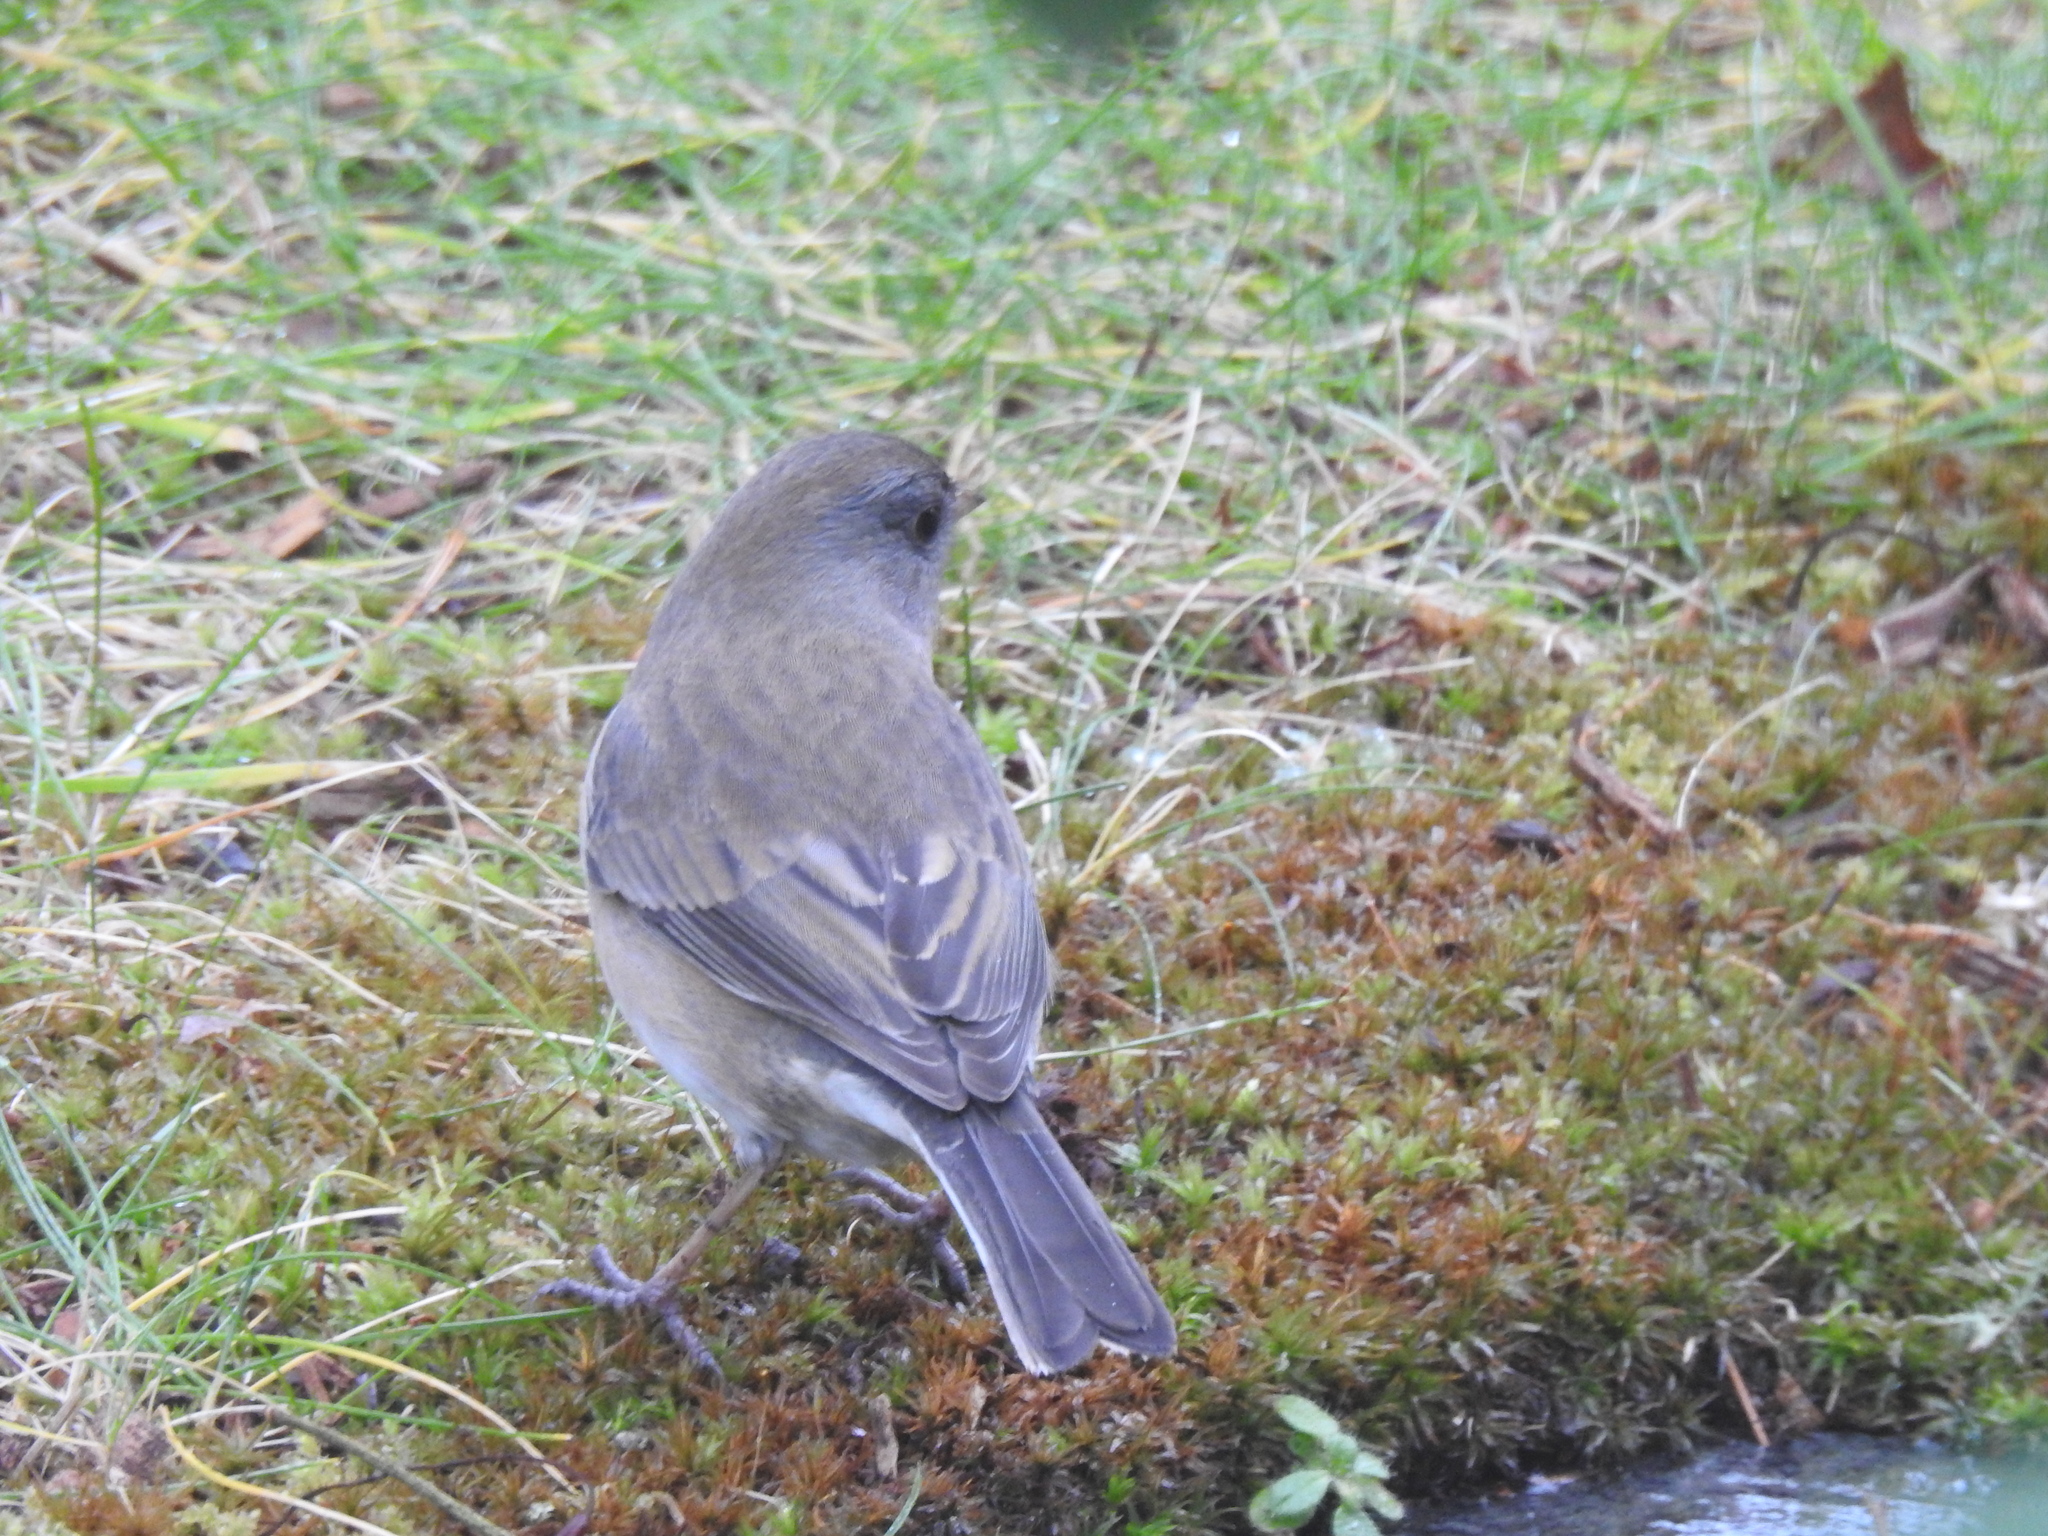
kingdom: Animalia
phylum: Chordata
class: Aves
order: Passeriformes
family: Passerellidae
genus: Junco
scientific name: Junco hyemalis
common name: Dark-eyed junco
